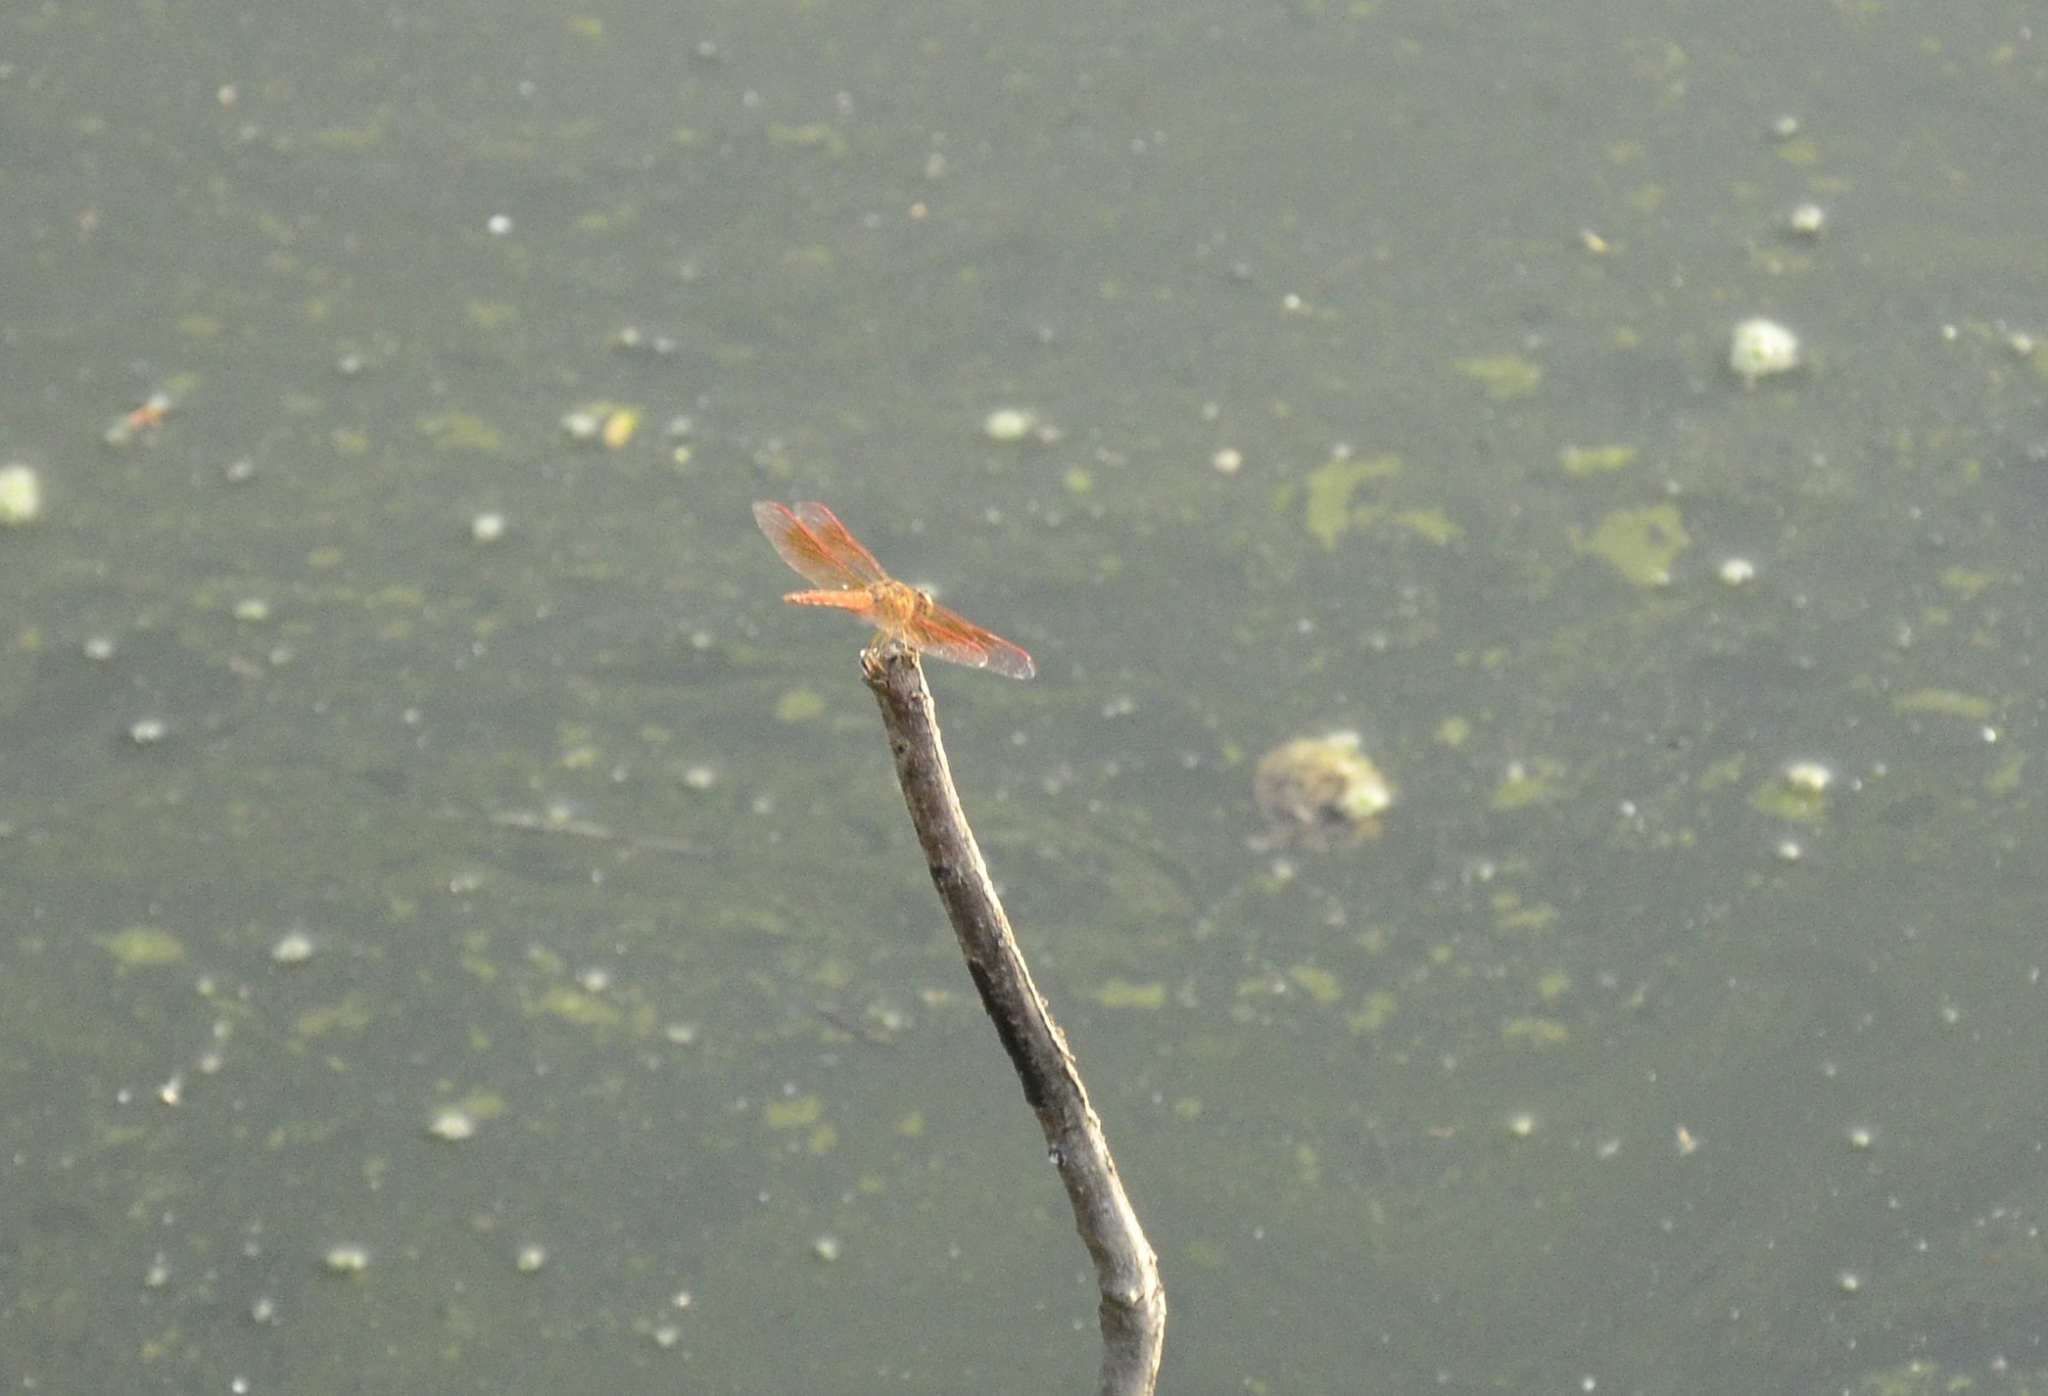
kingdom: Animalia
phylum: Arthropoda
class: Insecta
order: Odonata
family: Libellulidae
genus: Brachythemis
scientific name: Brachythemis contaminata
